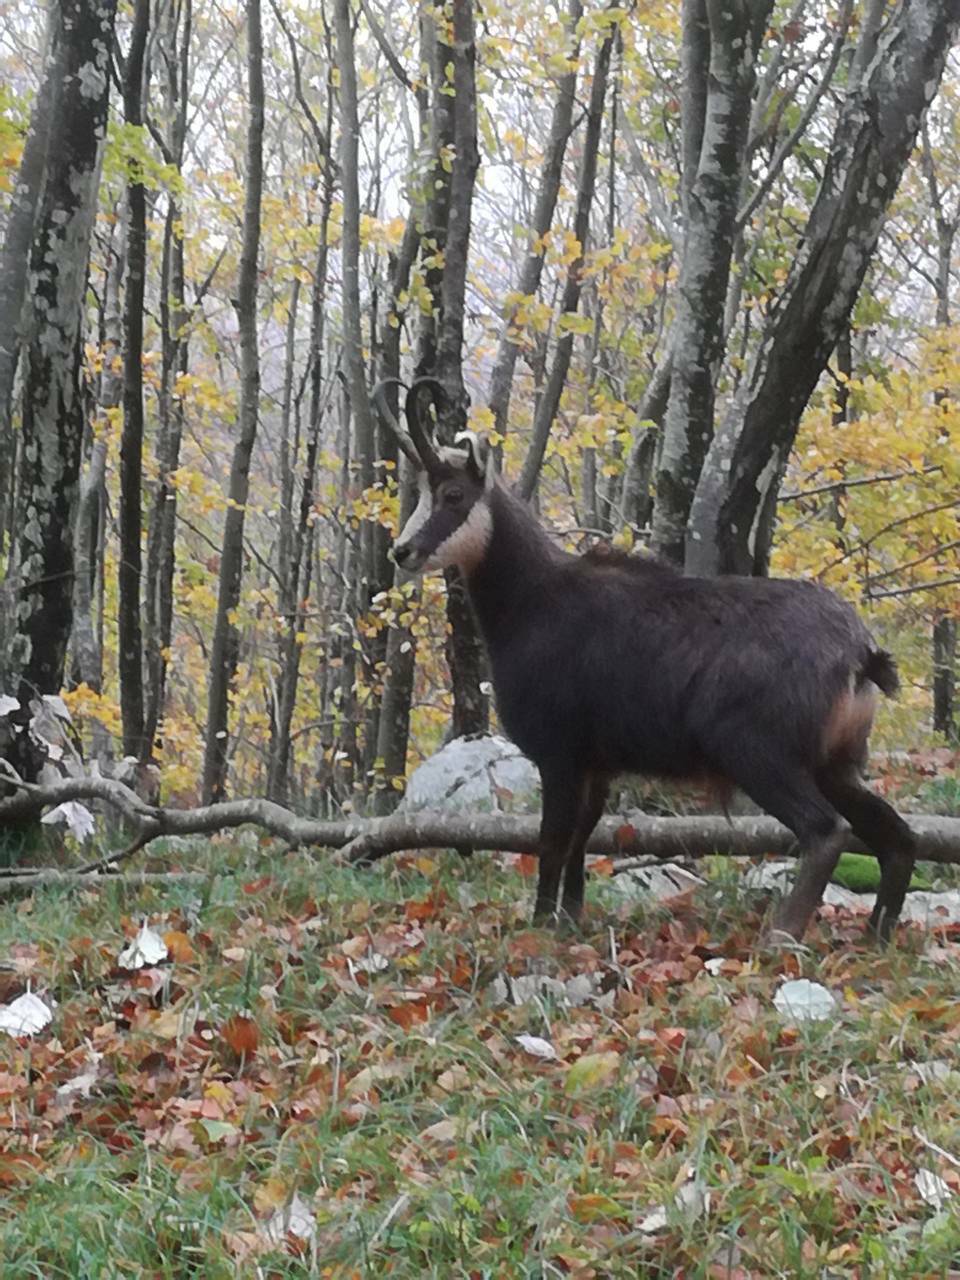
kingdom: Animalia
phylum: Chordata
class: Mammalia
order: Artiodactyla
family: Bovidae
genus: Rupicapra
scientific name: Rupicapra rupicapra
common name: Chamois
